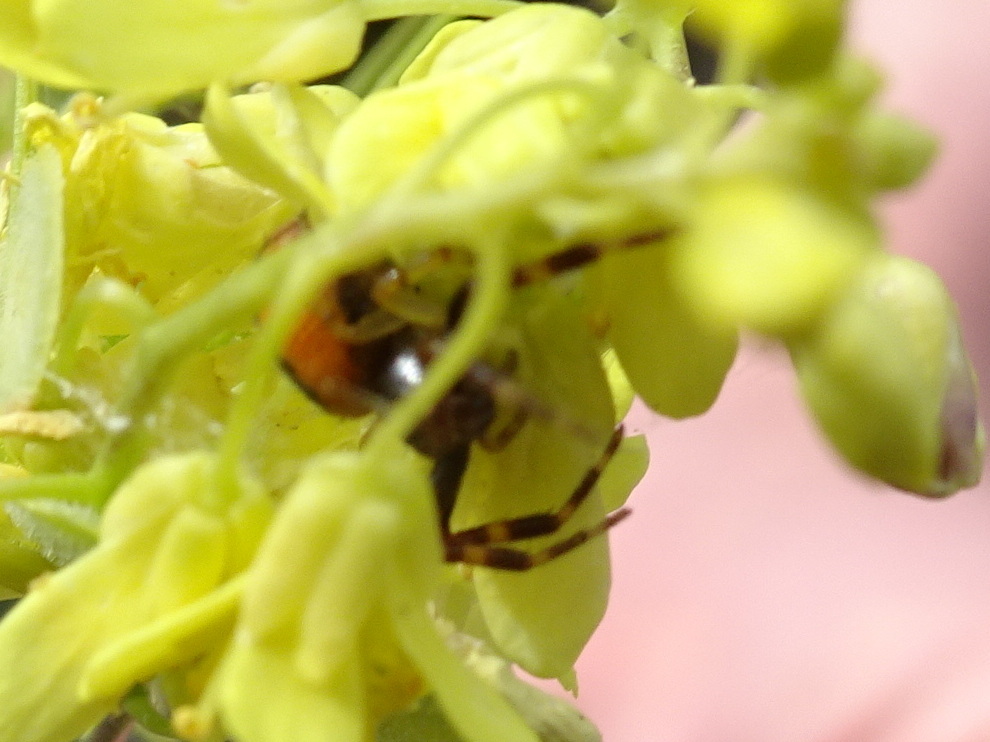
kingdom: Animalia
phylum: Arthropoda
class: Arachnida
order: Araneae
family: Thomisidae
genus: Synema
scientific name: Synema globosum
